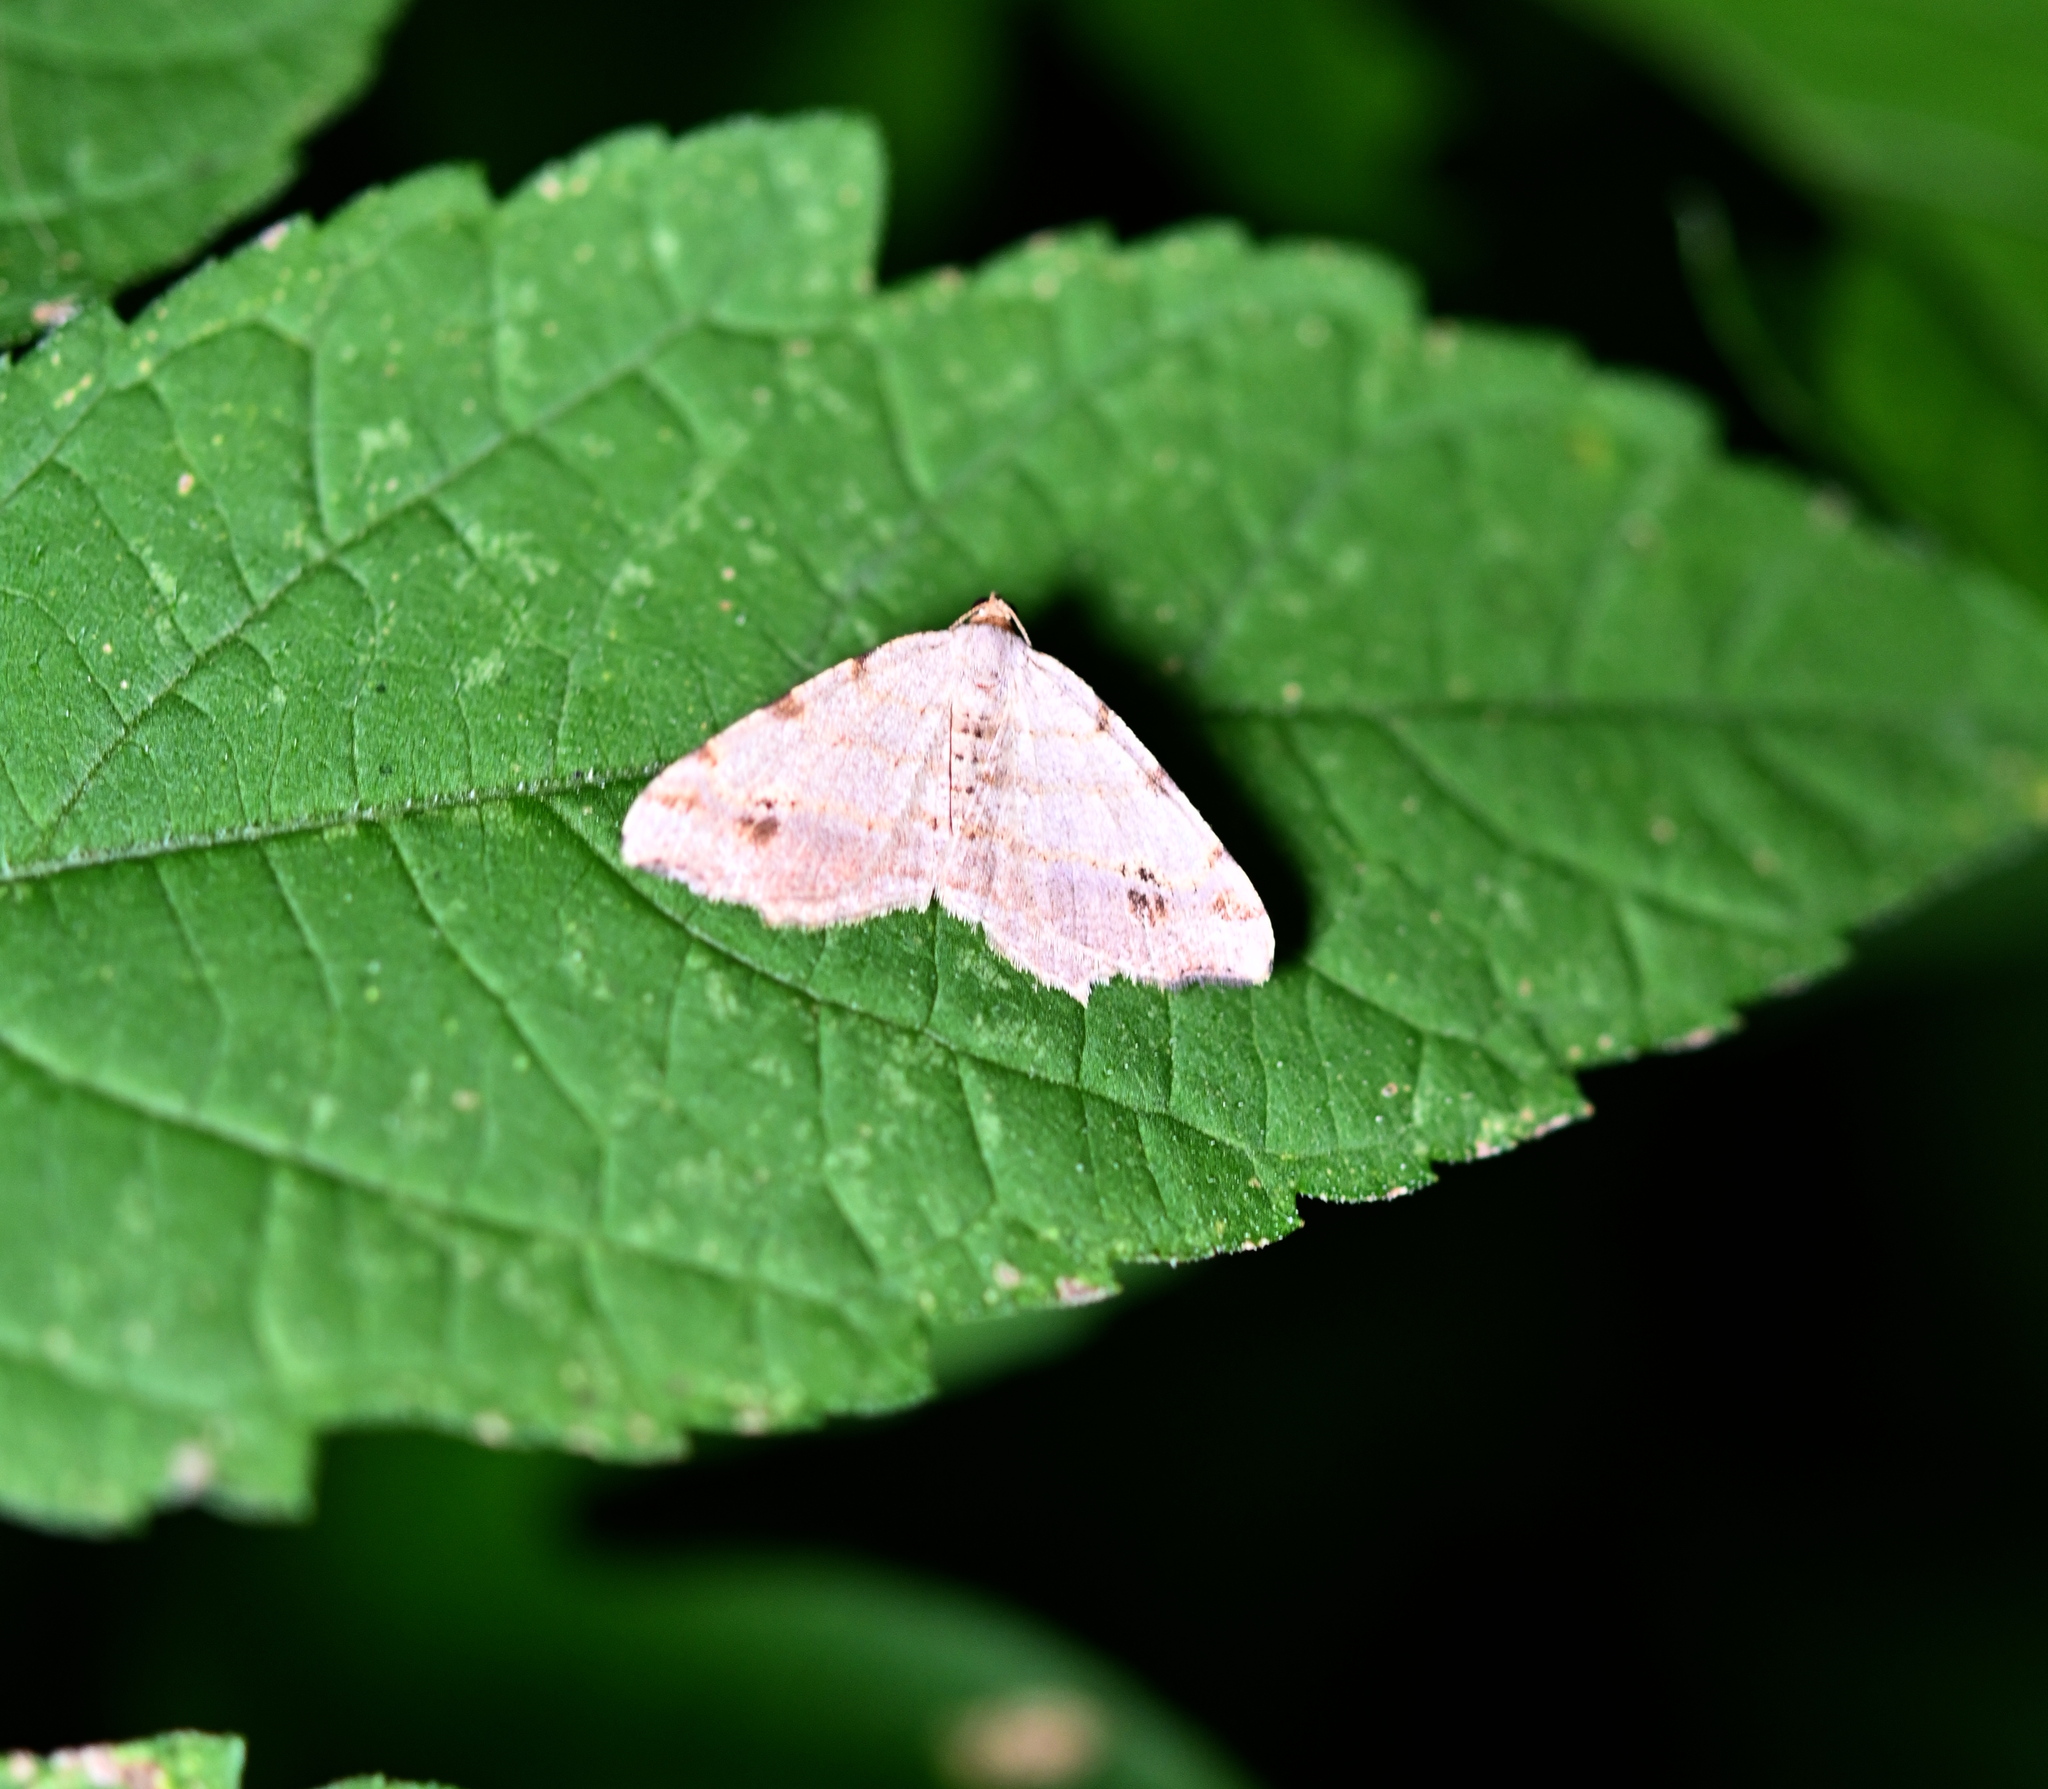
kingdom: Animalia
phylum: Arthropoda
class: Insecta
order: Lepidoptera
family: Geometridae
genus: Macaria
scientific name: Macaria aemulataria
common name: Common angle
